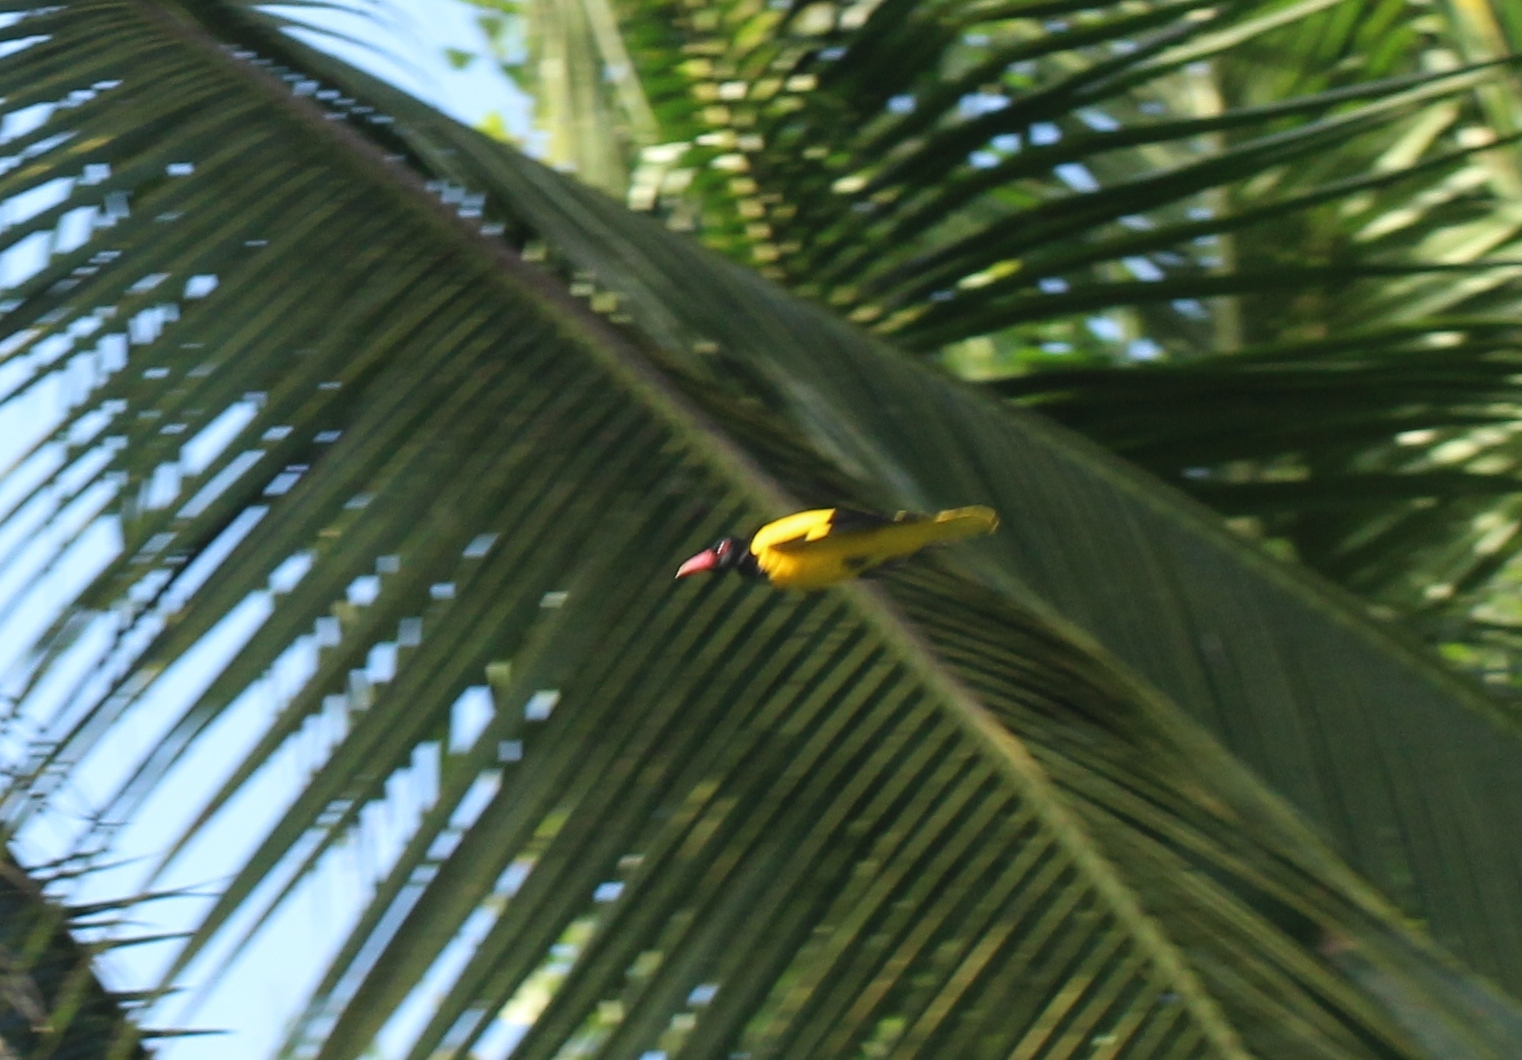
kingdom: Animalia
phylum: Chordata
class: Aves
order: Passeriformes
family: Oriolidae
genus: Oriolus
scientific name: Oriolus xanthornus
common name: Black-hooded oriole
